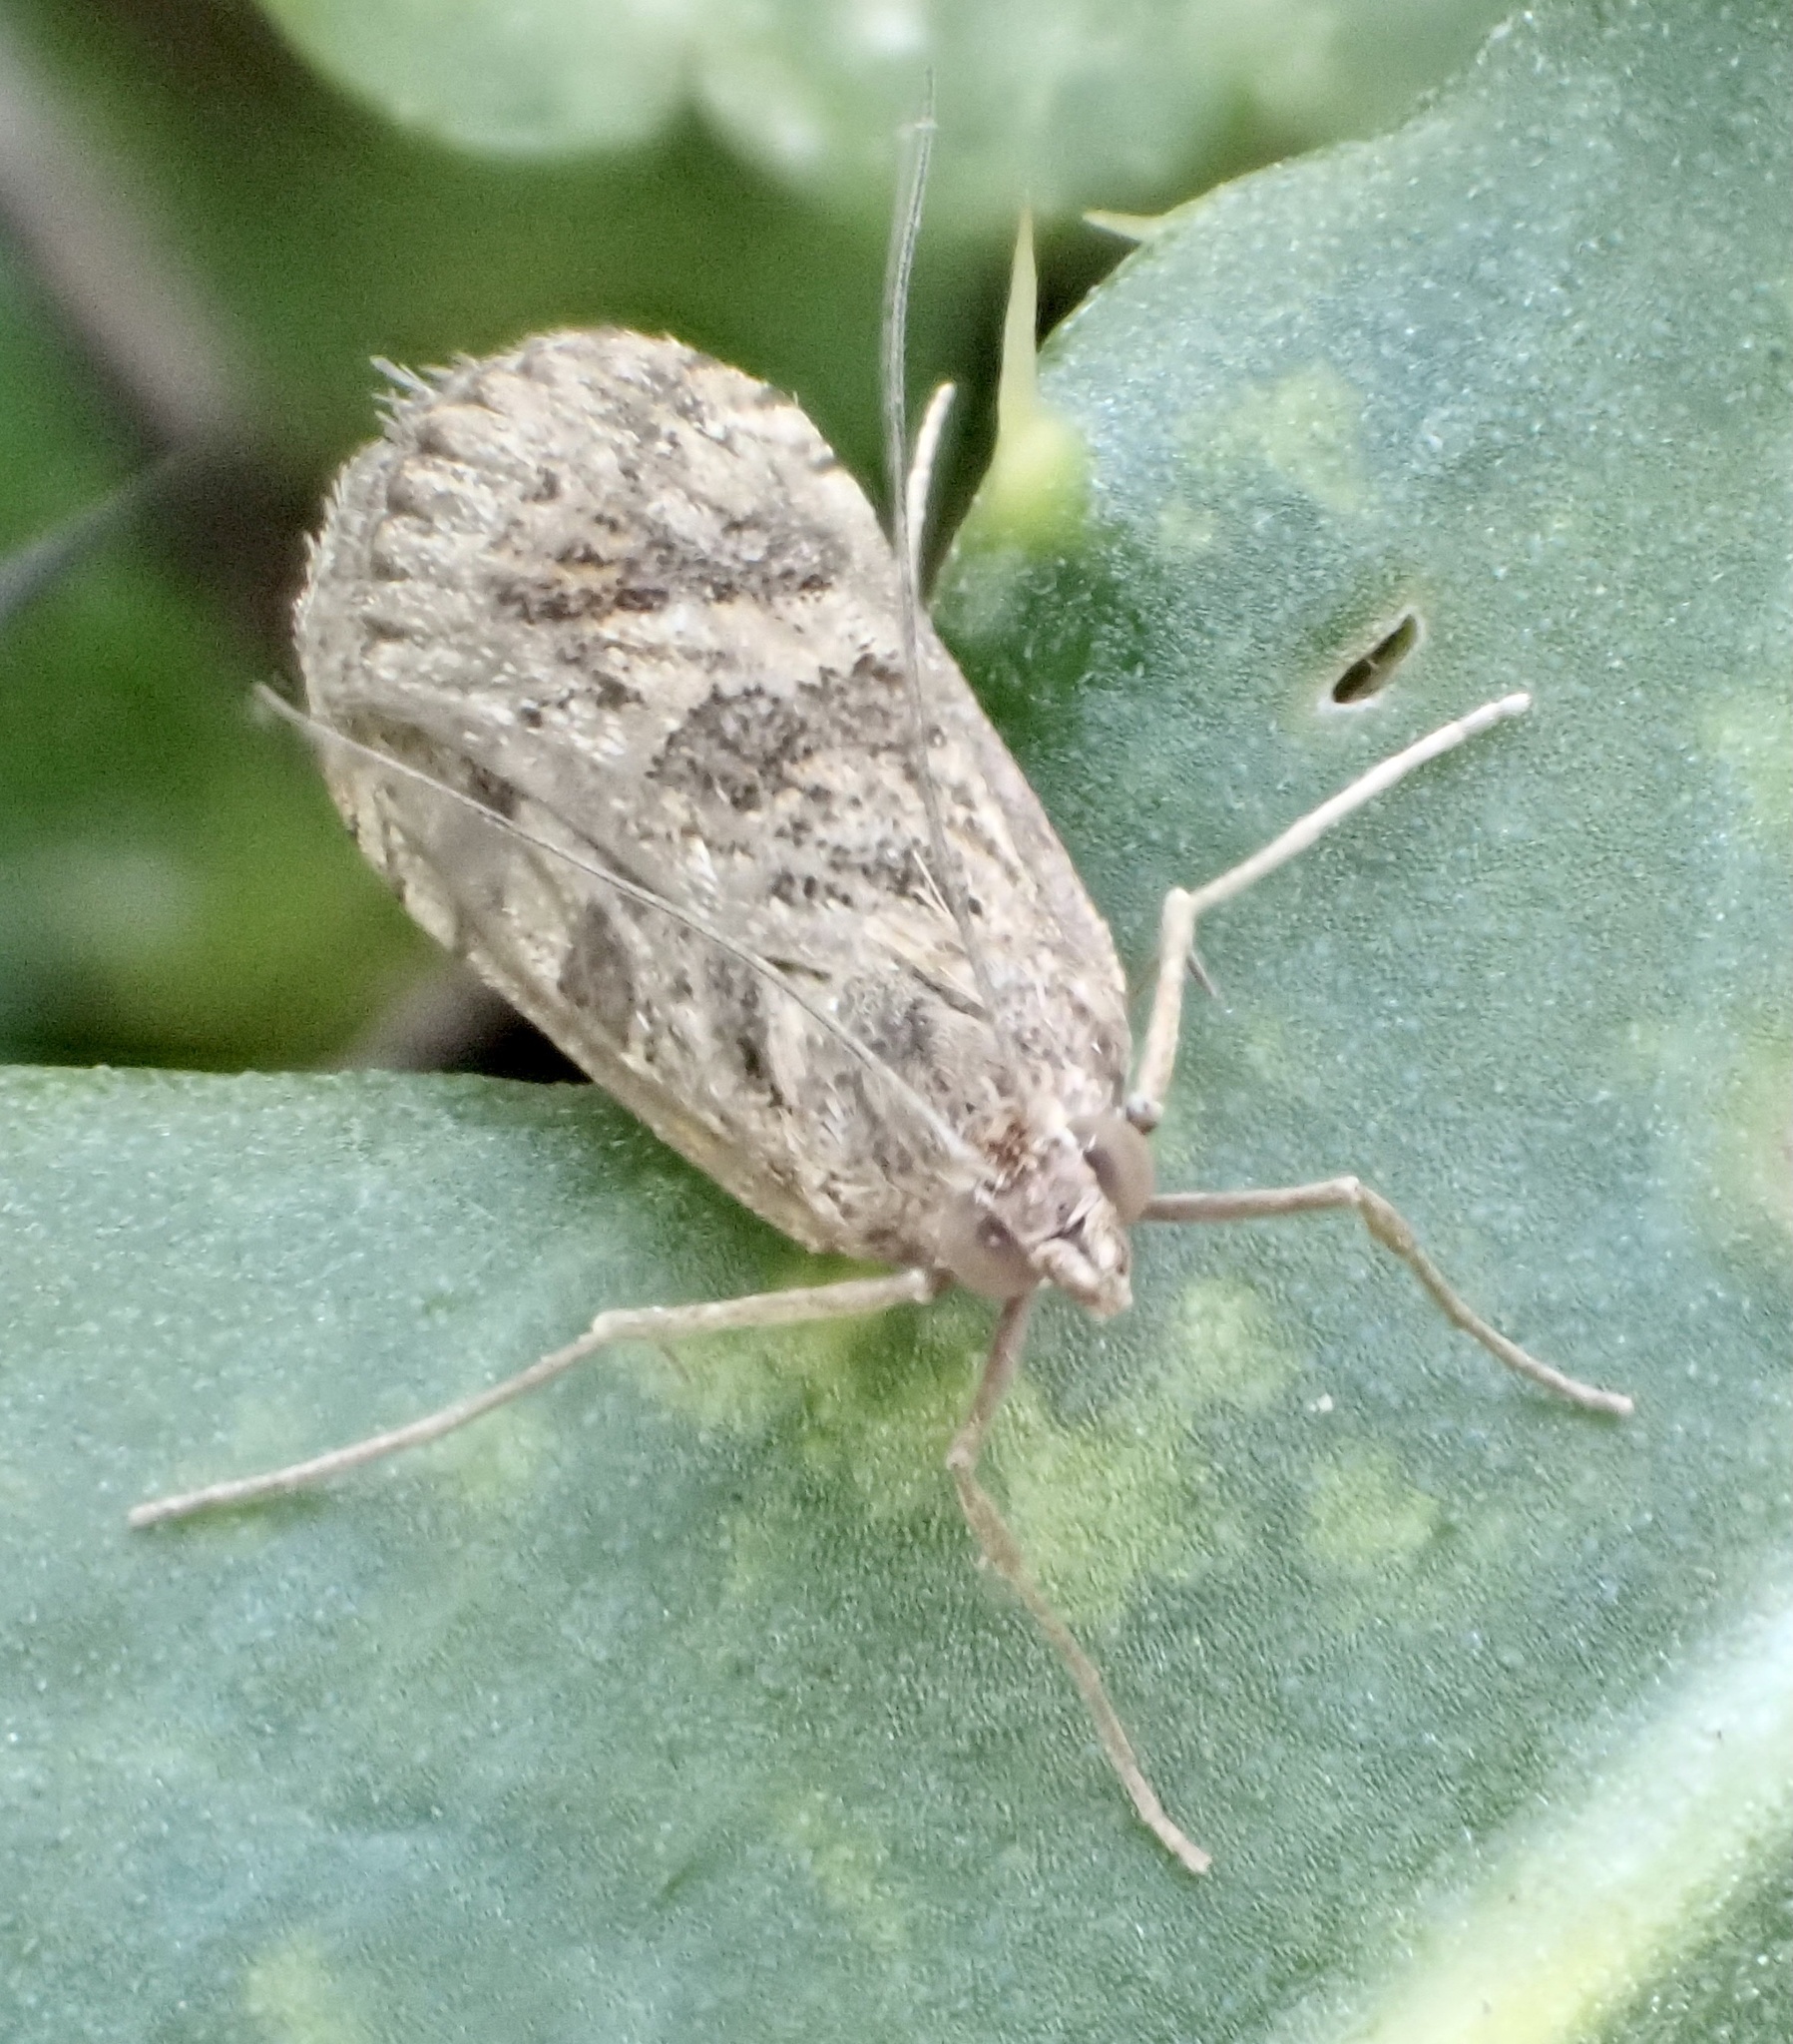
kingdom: Animalia
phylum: Arthropoda
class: Insecta
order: Lepidoptera
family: Crambidae
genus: Nomophila
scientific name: Nomophila noctuella
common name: Rush veneer
